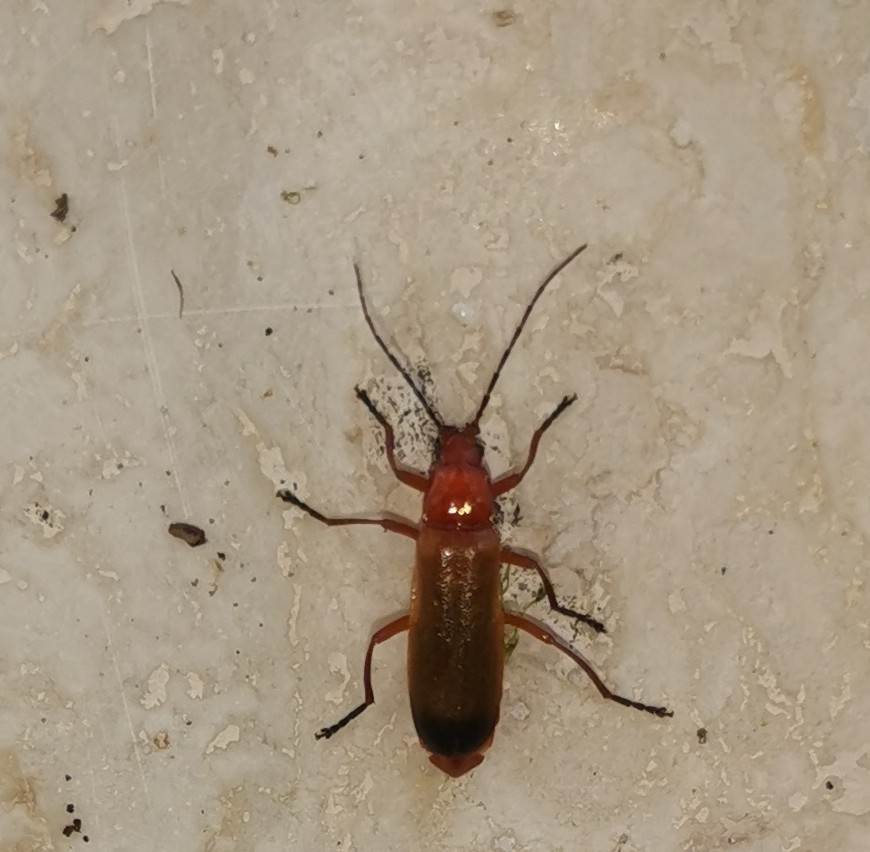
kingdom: Animalia
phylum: Arthropoda
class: Insecta
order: Coleoptera
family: Cantharidae
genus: Rhagonycha
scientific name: Rhagonycha fulva
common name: Common red soldier beetle
